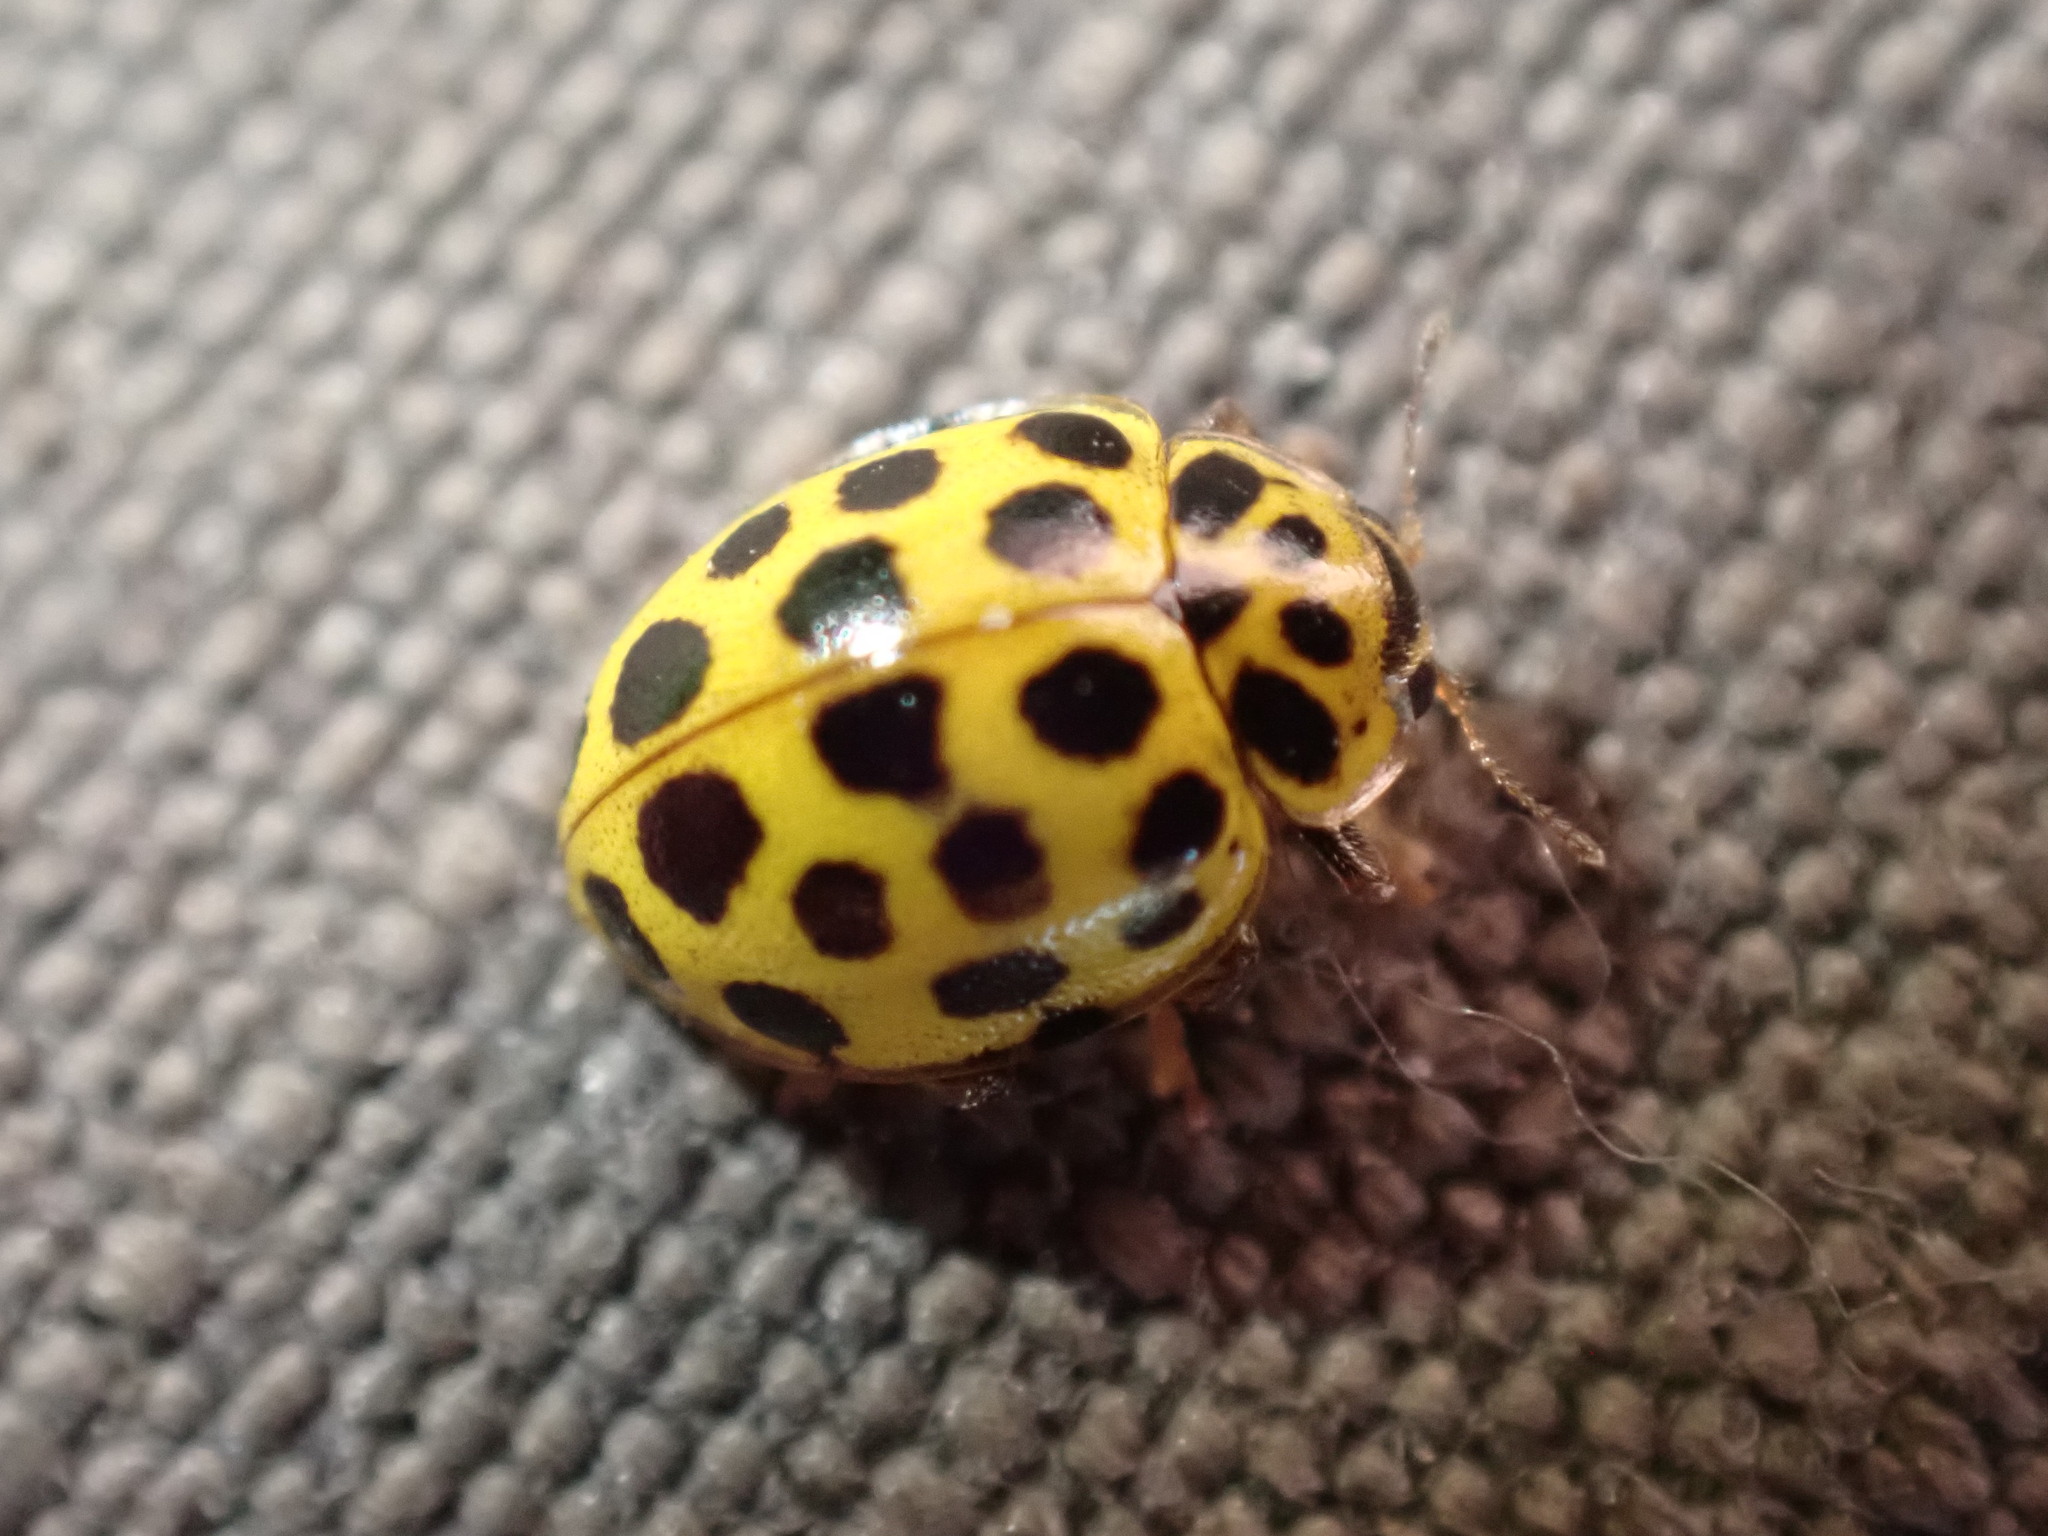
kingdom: Animalia
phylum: Arthropoda
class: Insecta
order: Coleoptera
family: Coccinellidae
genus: Psyllobora
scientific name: Psyllobora vigintiduopunctata
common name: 22-spot ladybird
